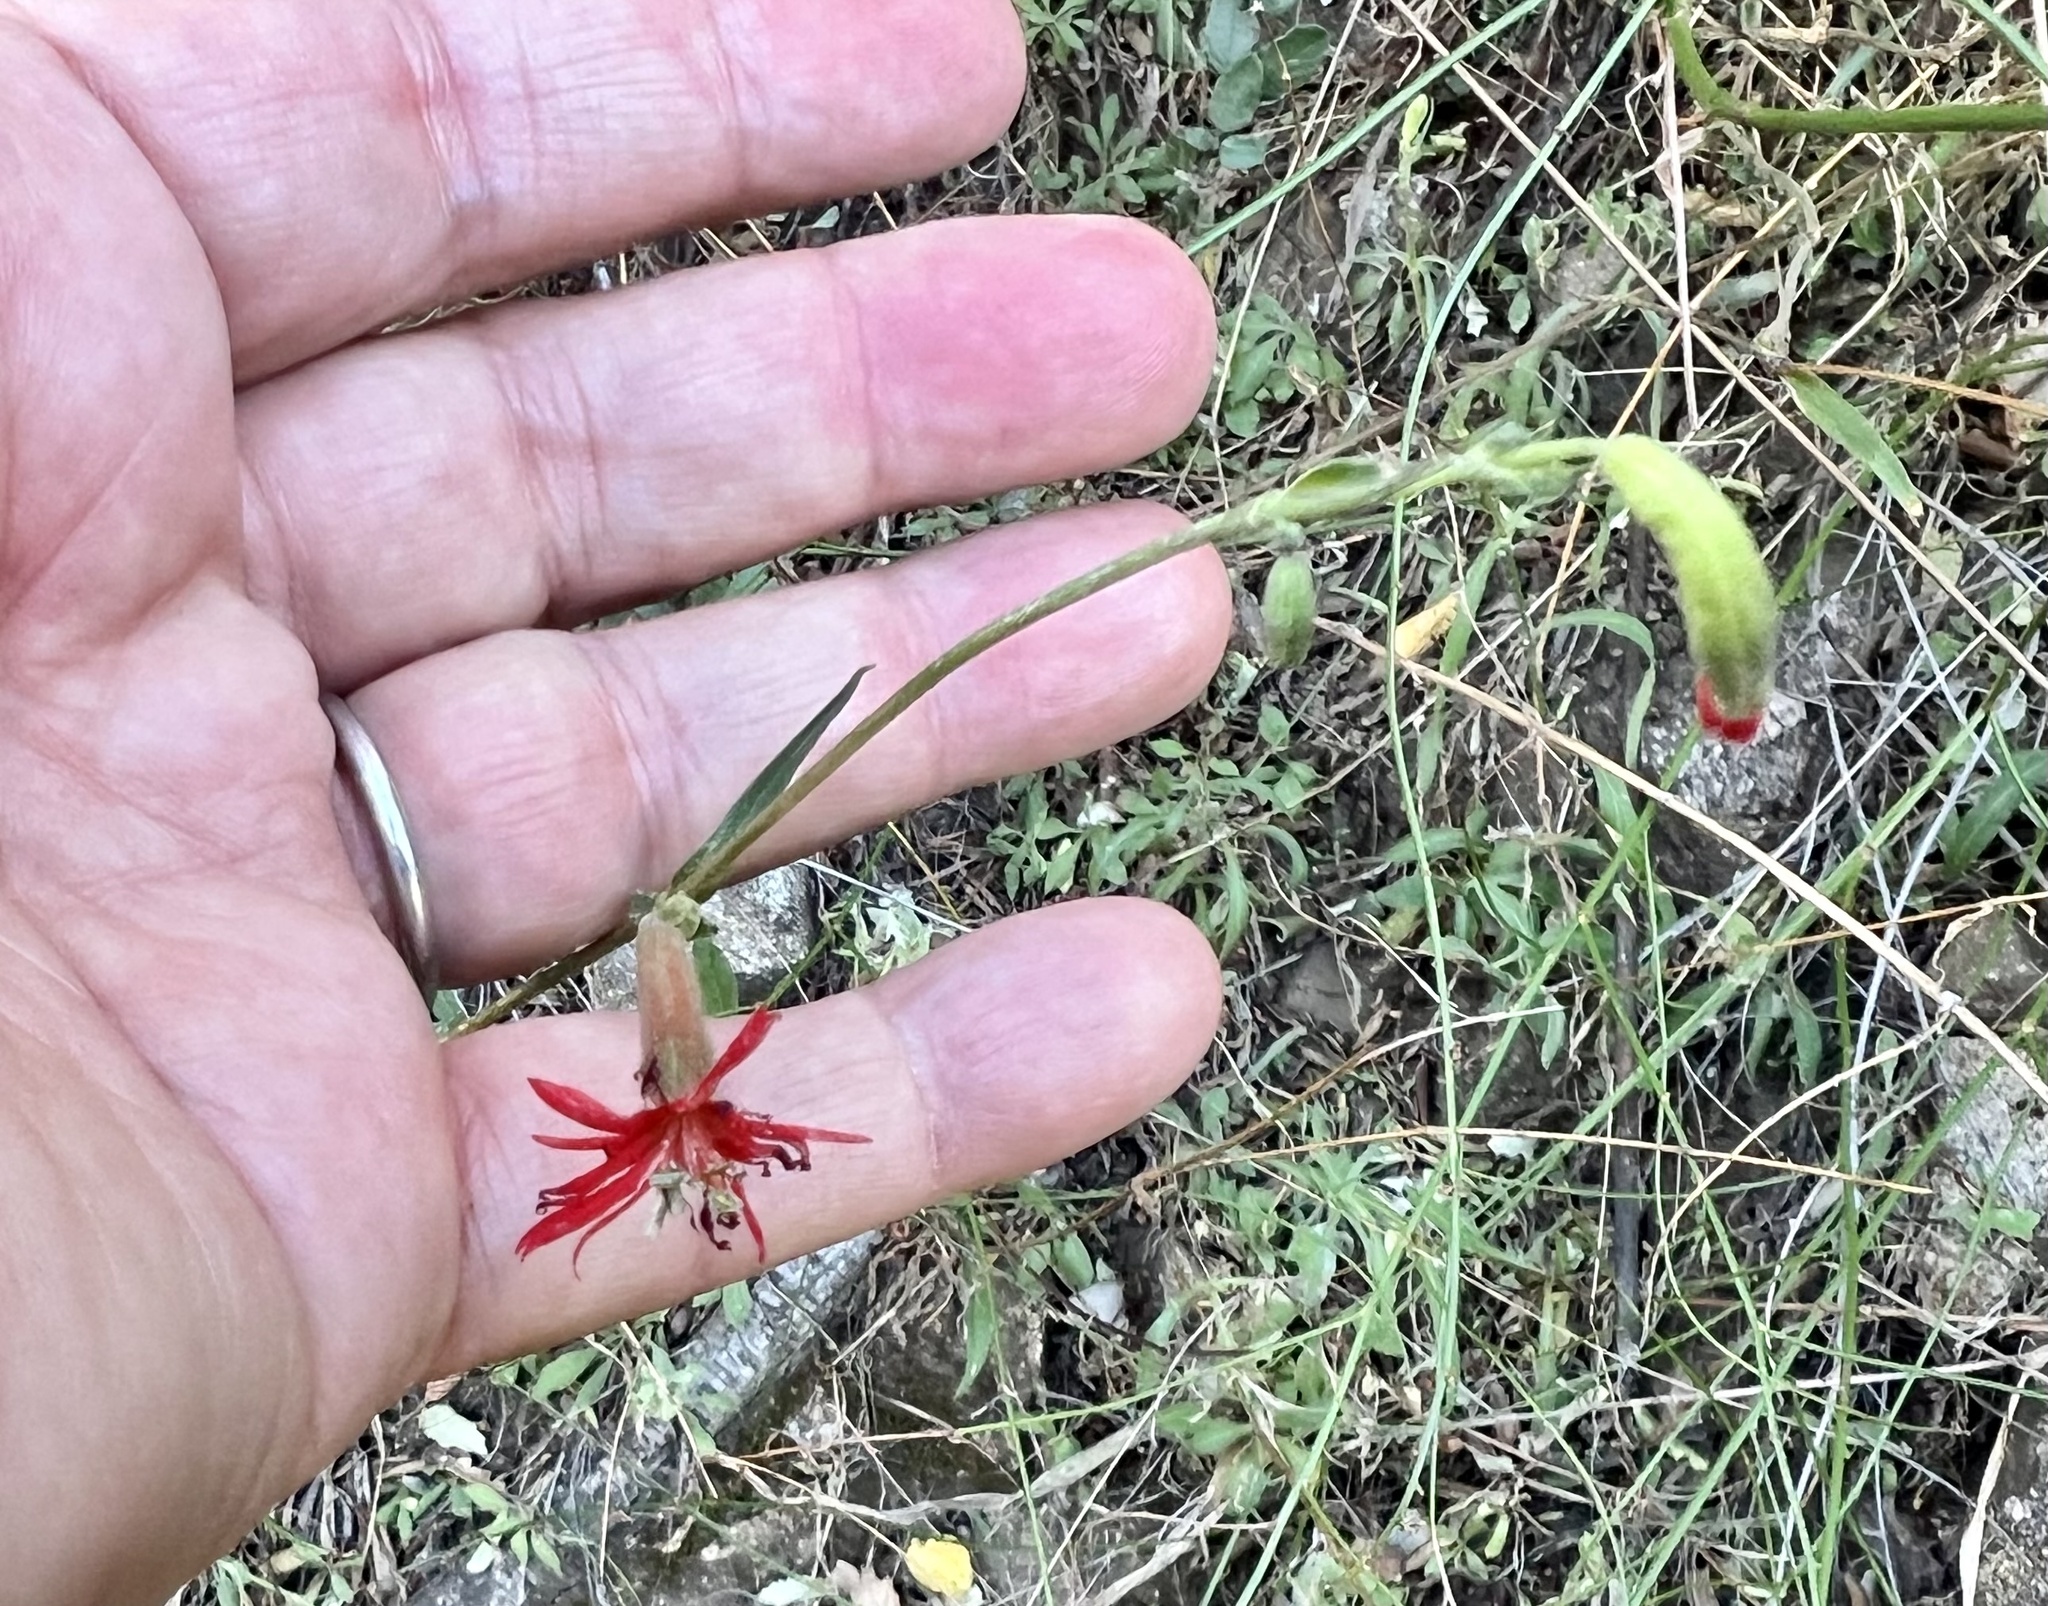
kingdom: Plantae
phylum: Tracheophyta
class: Magnoliopsida
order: Caryophyllales
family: Caryophyllaceae
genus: Silene
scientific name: Silene laciniata
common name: Indian-pink
